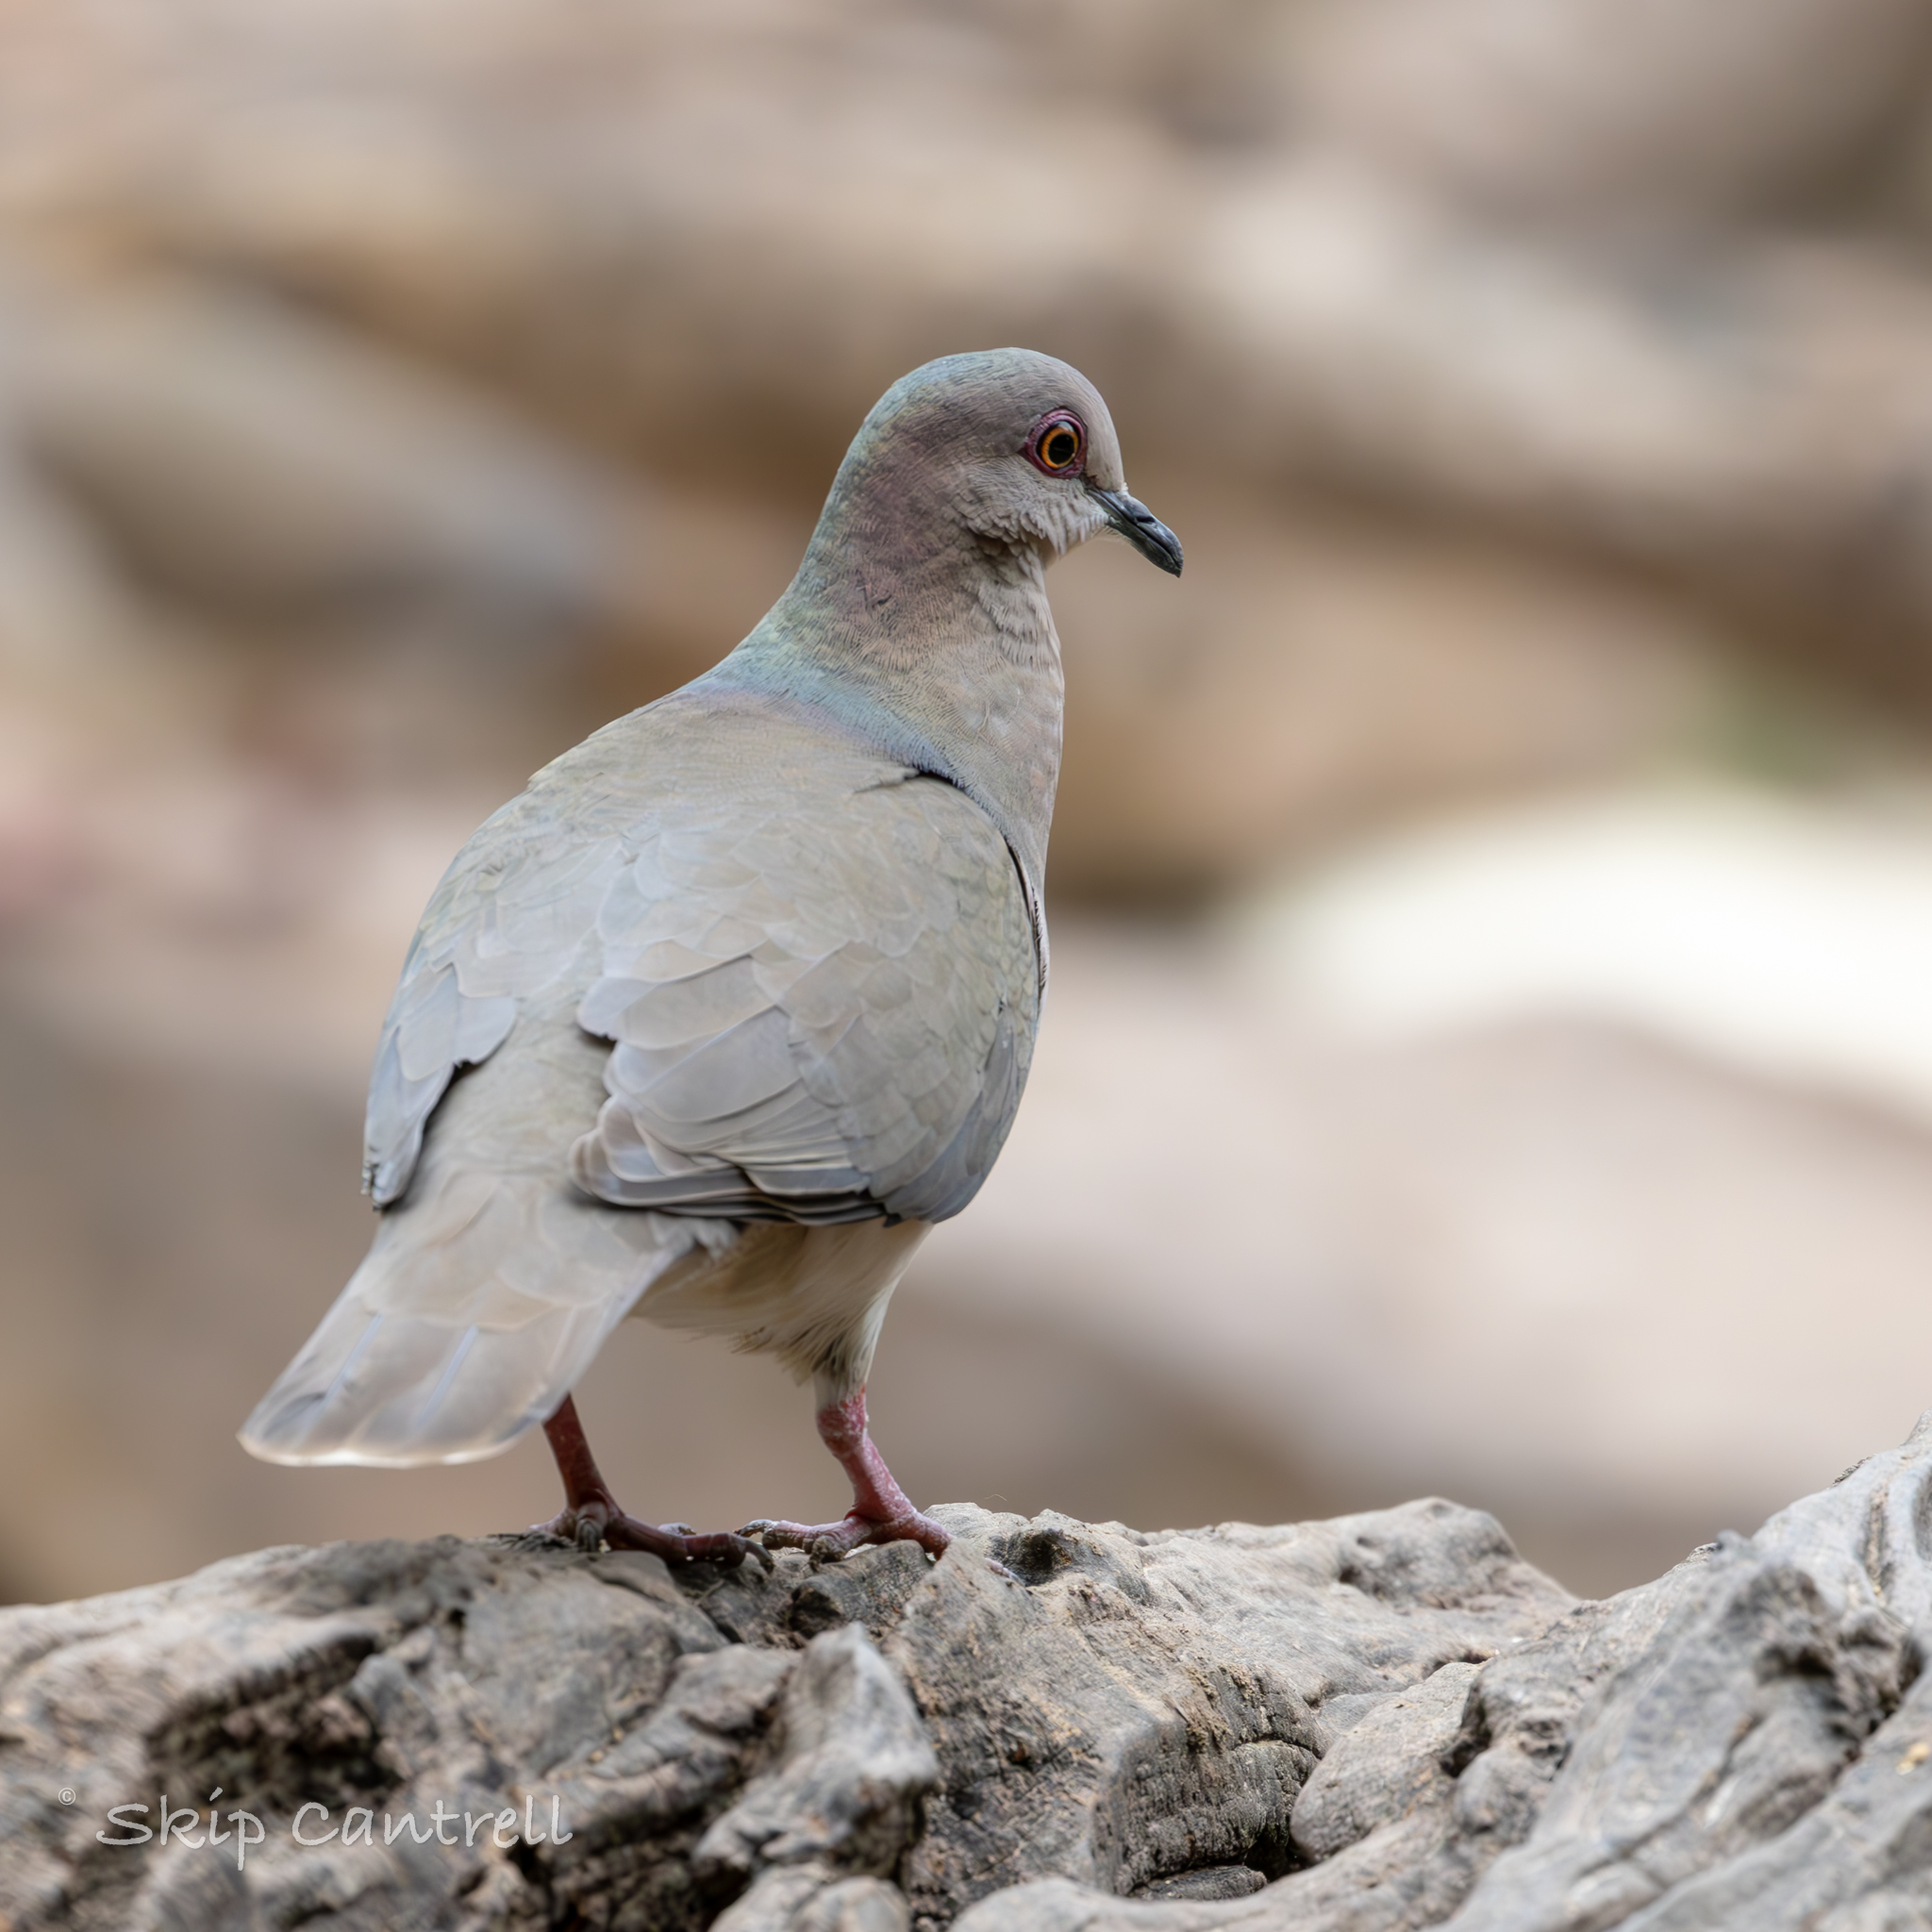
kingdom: Animalia
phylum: Chordata
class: Aves
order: Columbiformes
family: Columbidae
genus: Leptotila
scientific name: Leptotila verreauxi
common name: White-tipped dove
